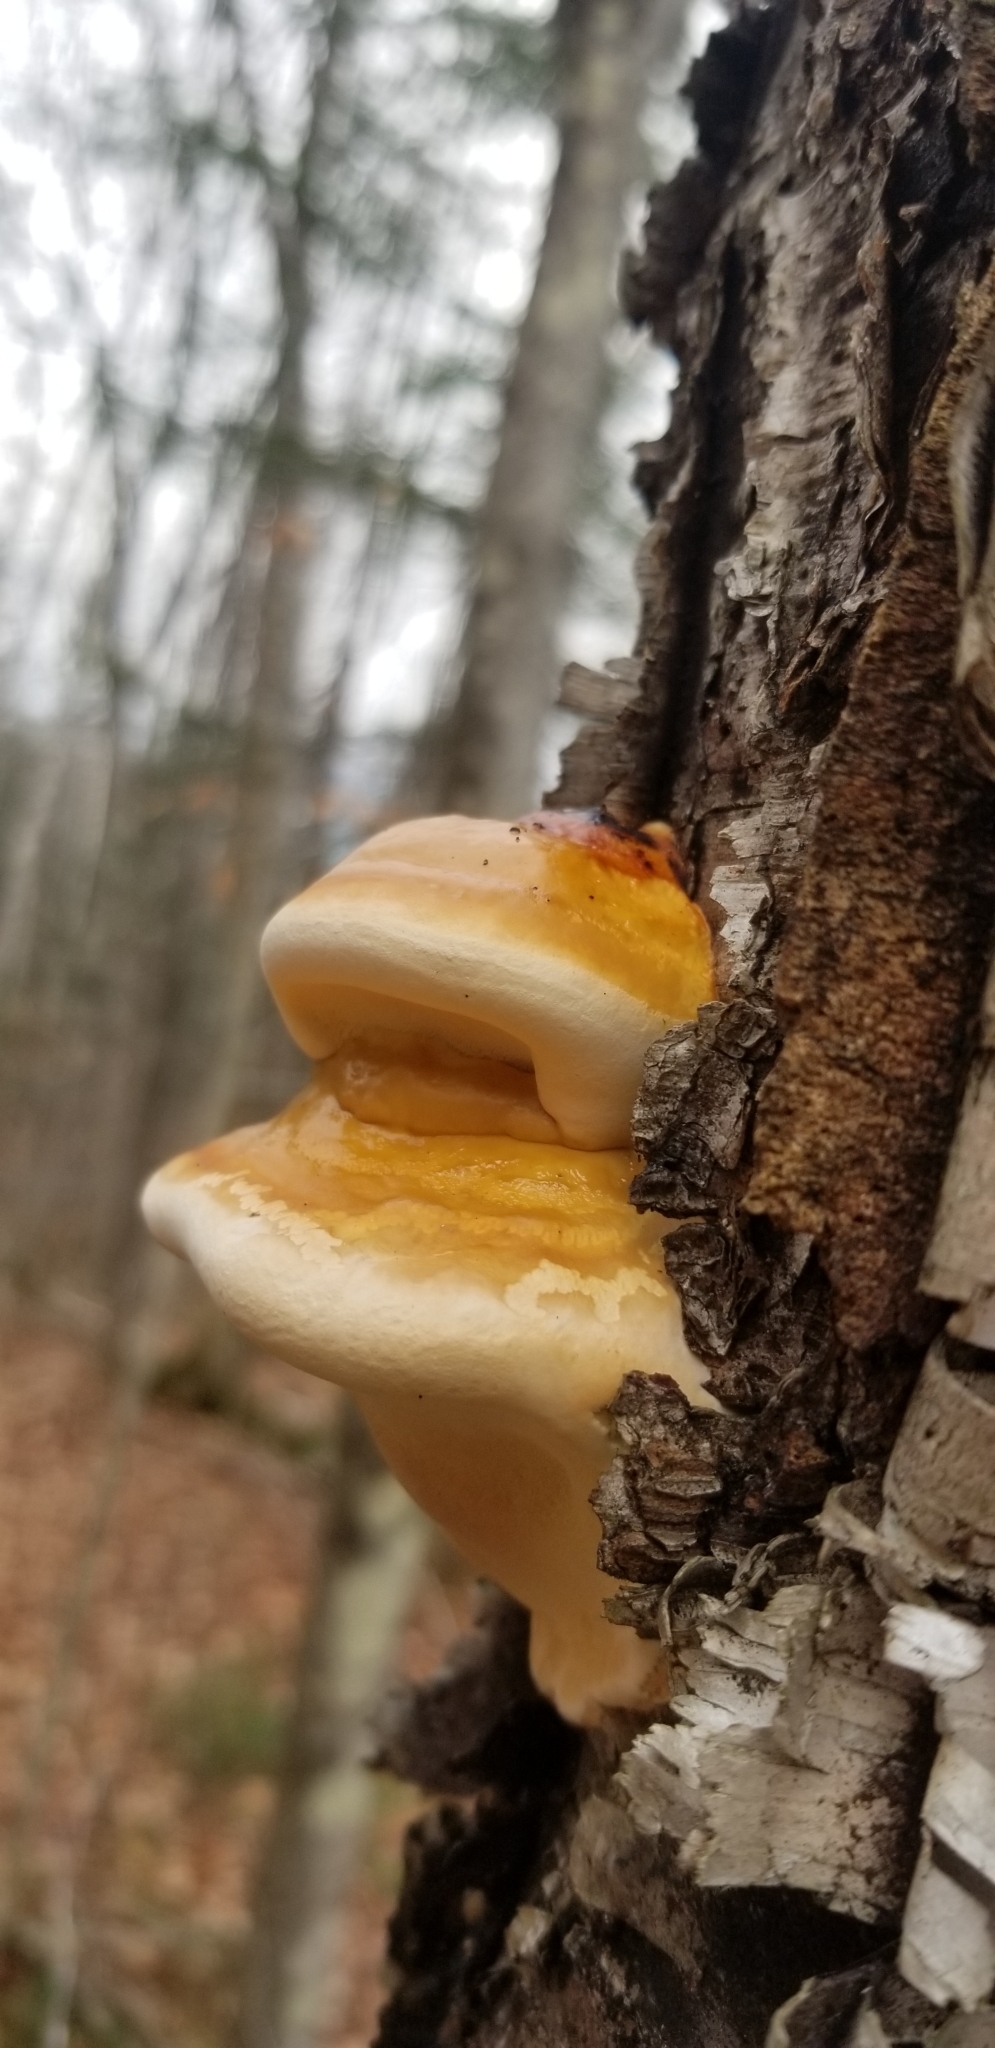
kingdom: Fungi
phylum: Basidiomycota
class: Agaricomycetes
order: Polyporales
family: Fomitopsidaceae
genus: Fomitopsis
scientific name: Fomitopsis mounceae
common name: Northern red belt
